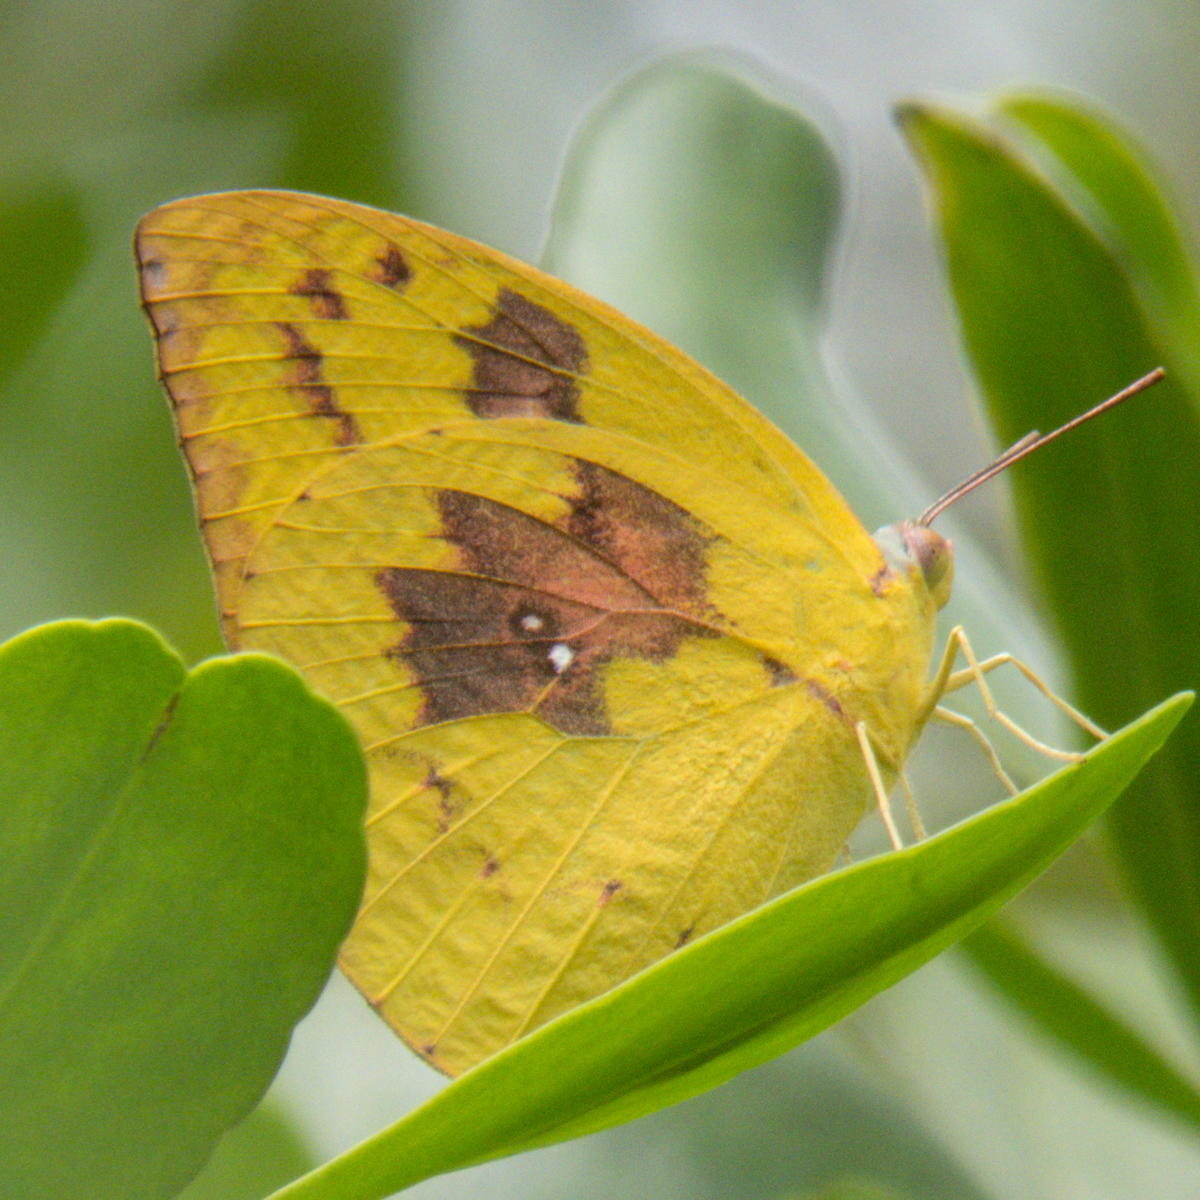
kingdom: Animalia
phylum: Arthropoda
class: Insecta
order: Lepidoptera
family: Pieridae
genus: Catopsilia
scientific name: Catopsilia pomona
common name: Common emigrant
